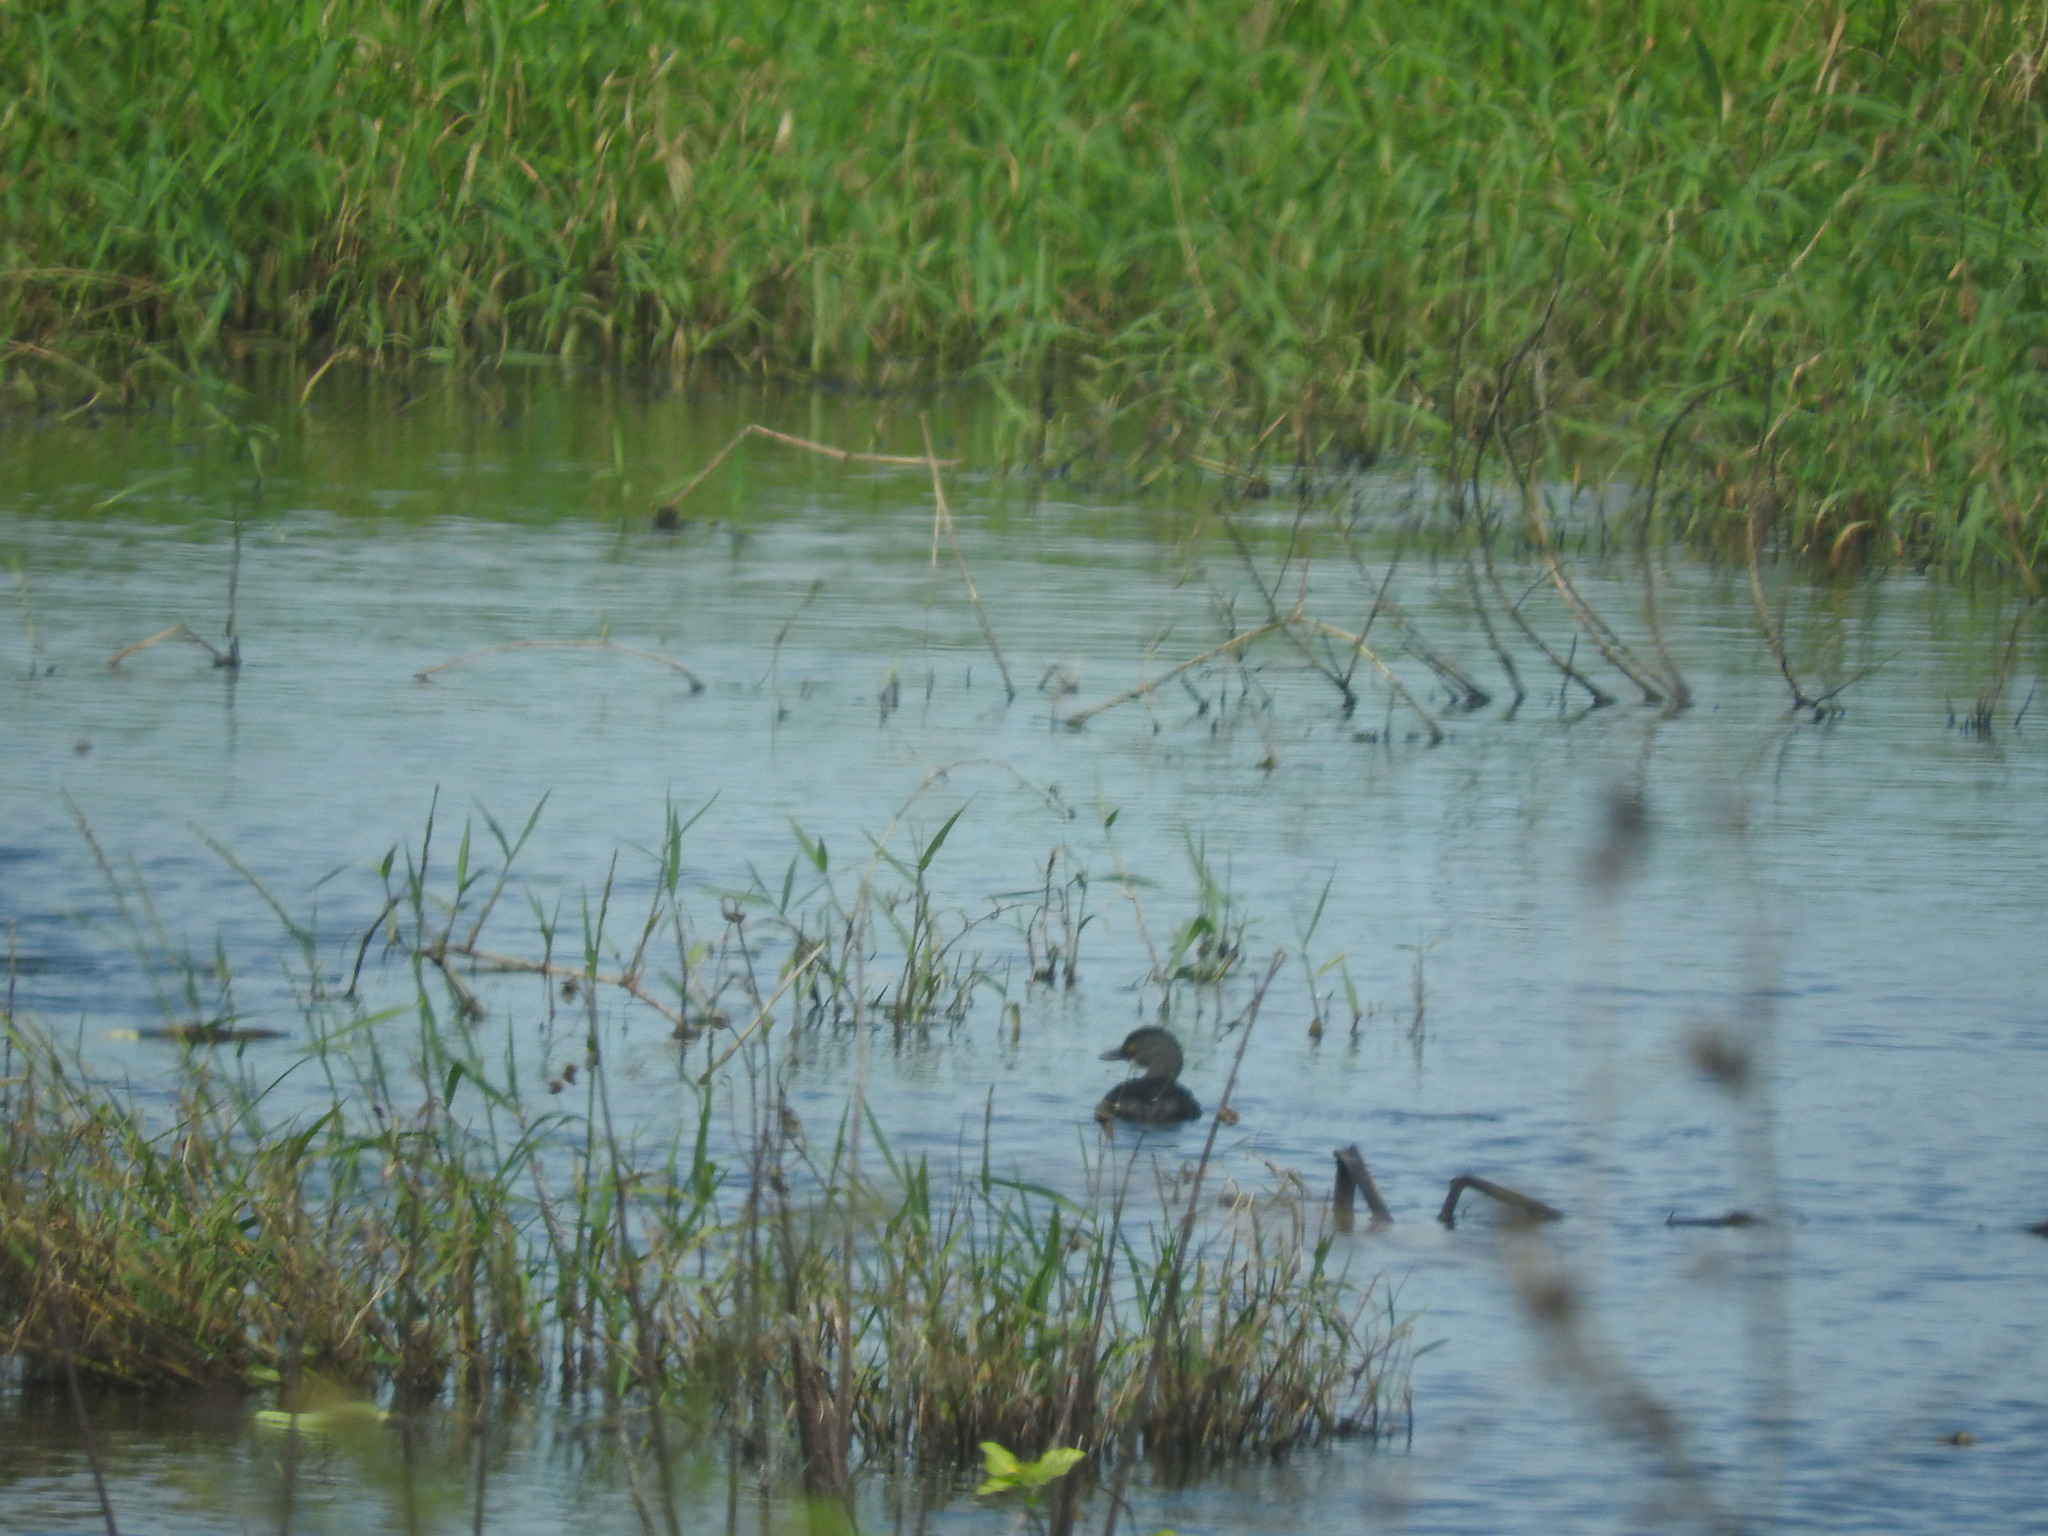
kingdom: Animalia
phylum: Chordata
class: Aves
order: Podicipediformes
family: Podicipedidae
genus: Tachybaptus
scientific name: Tachybaptus dominicus
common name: Least grebe
